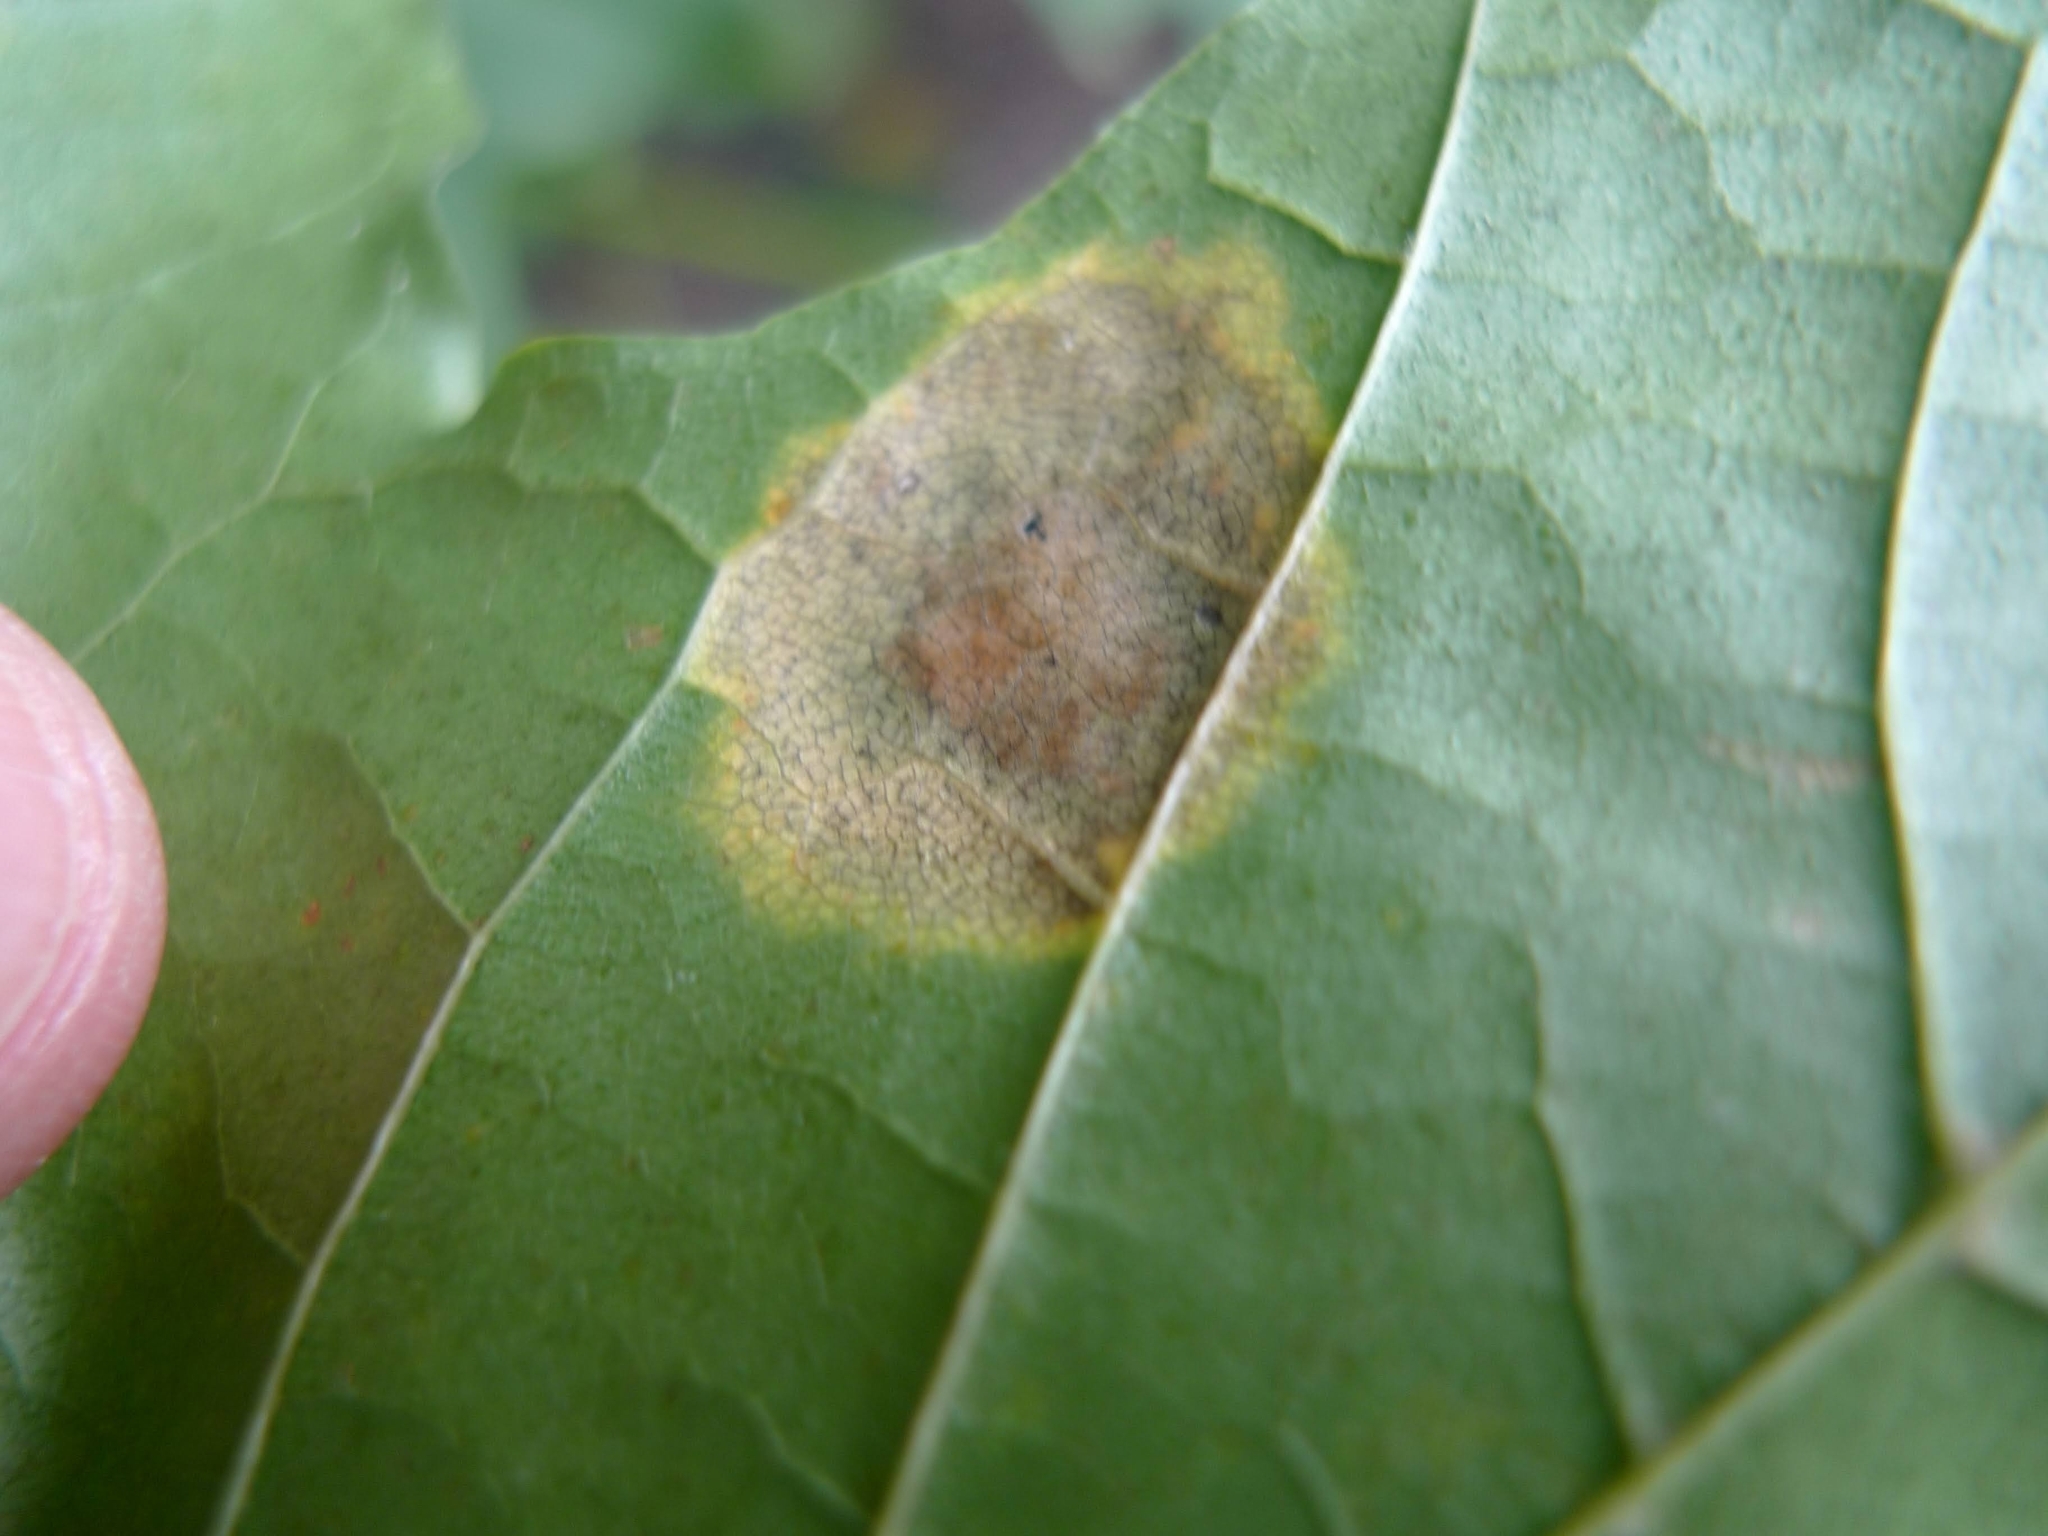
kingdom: Fungi
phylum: Ascomycota
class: Leotiomycetes
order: Rhytismatales
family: Rhytismataceae
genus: Rhytisma
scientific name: Rhytisma acerinum
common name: European tar spot
